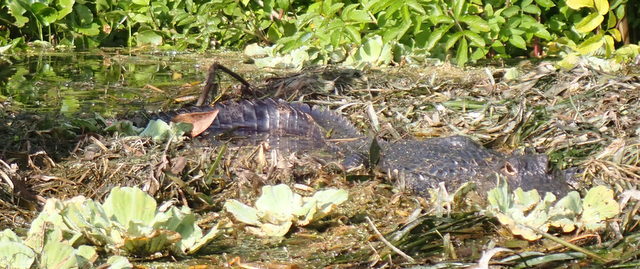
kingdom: Animalia
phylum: Chordata
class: Crocodylia
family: Alligatoridae
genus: Alligator
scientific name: Alligator mississippiensis
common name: American alligator
